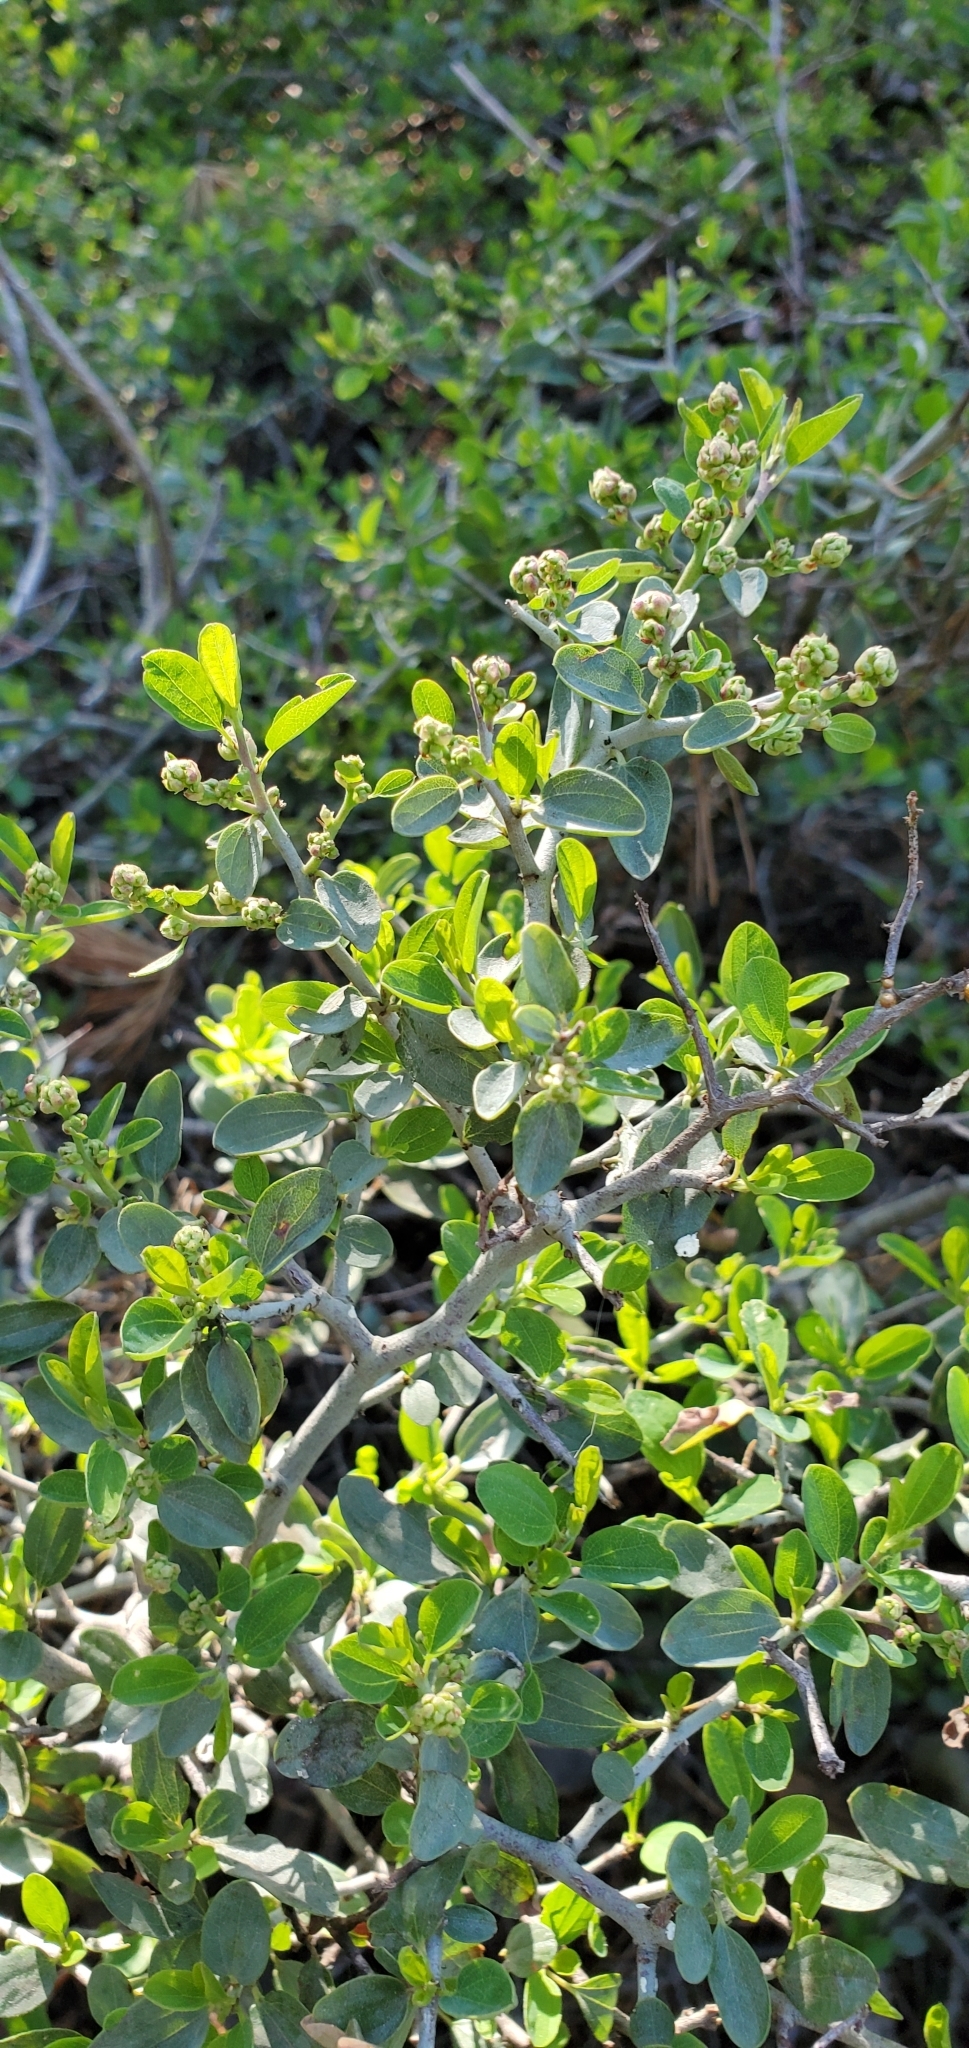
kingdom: Plantae
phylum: Tracheophyta
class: Magnoliopsida
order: Rosales
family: Rhamnaceae
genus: Ceanothus
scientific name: Ceanothus cordulatus
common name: Mountain whitethorn
